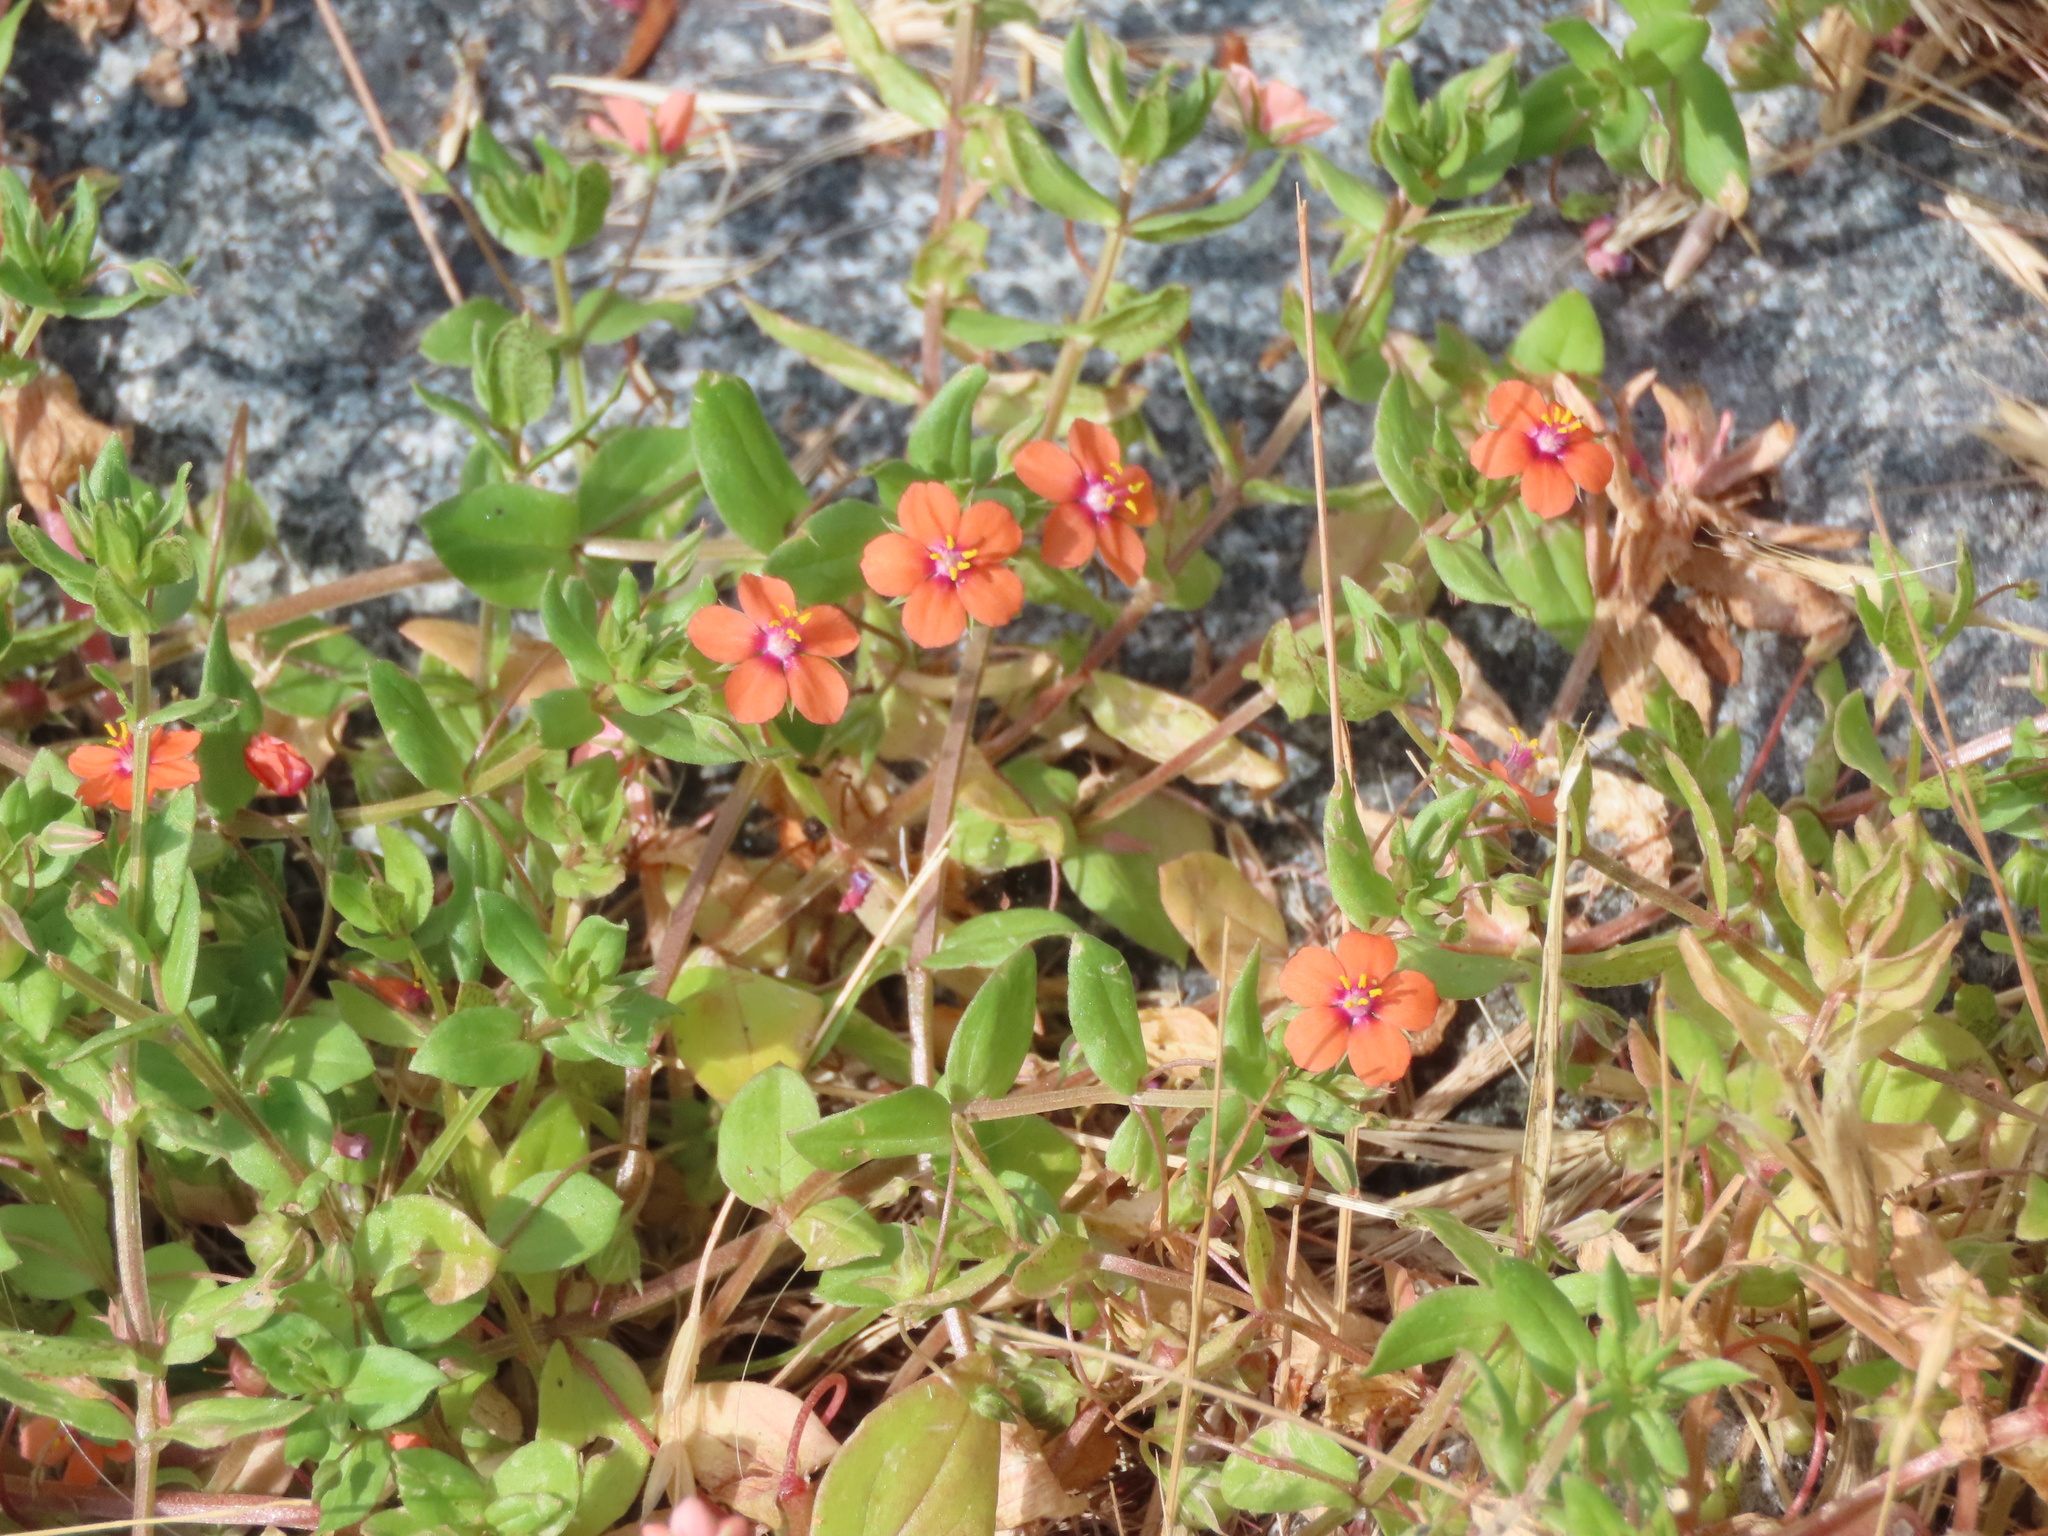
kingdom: Plantae
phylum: Tracheophyta
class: Magnoliopsida
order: Ericales
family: Primulaceae
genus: Lysimachia
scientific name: Lysimachia arvensis
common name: Scarlet pimpernel
